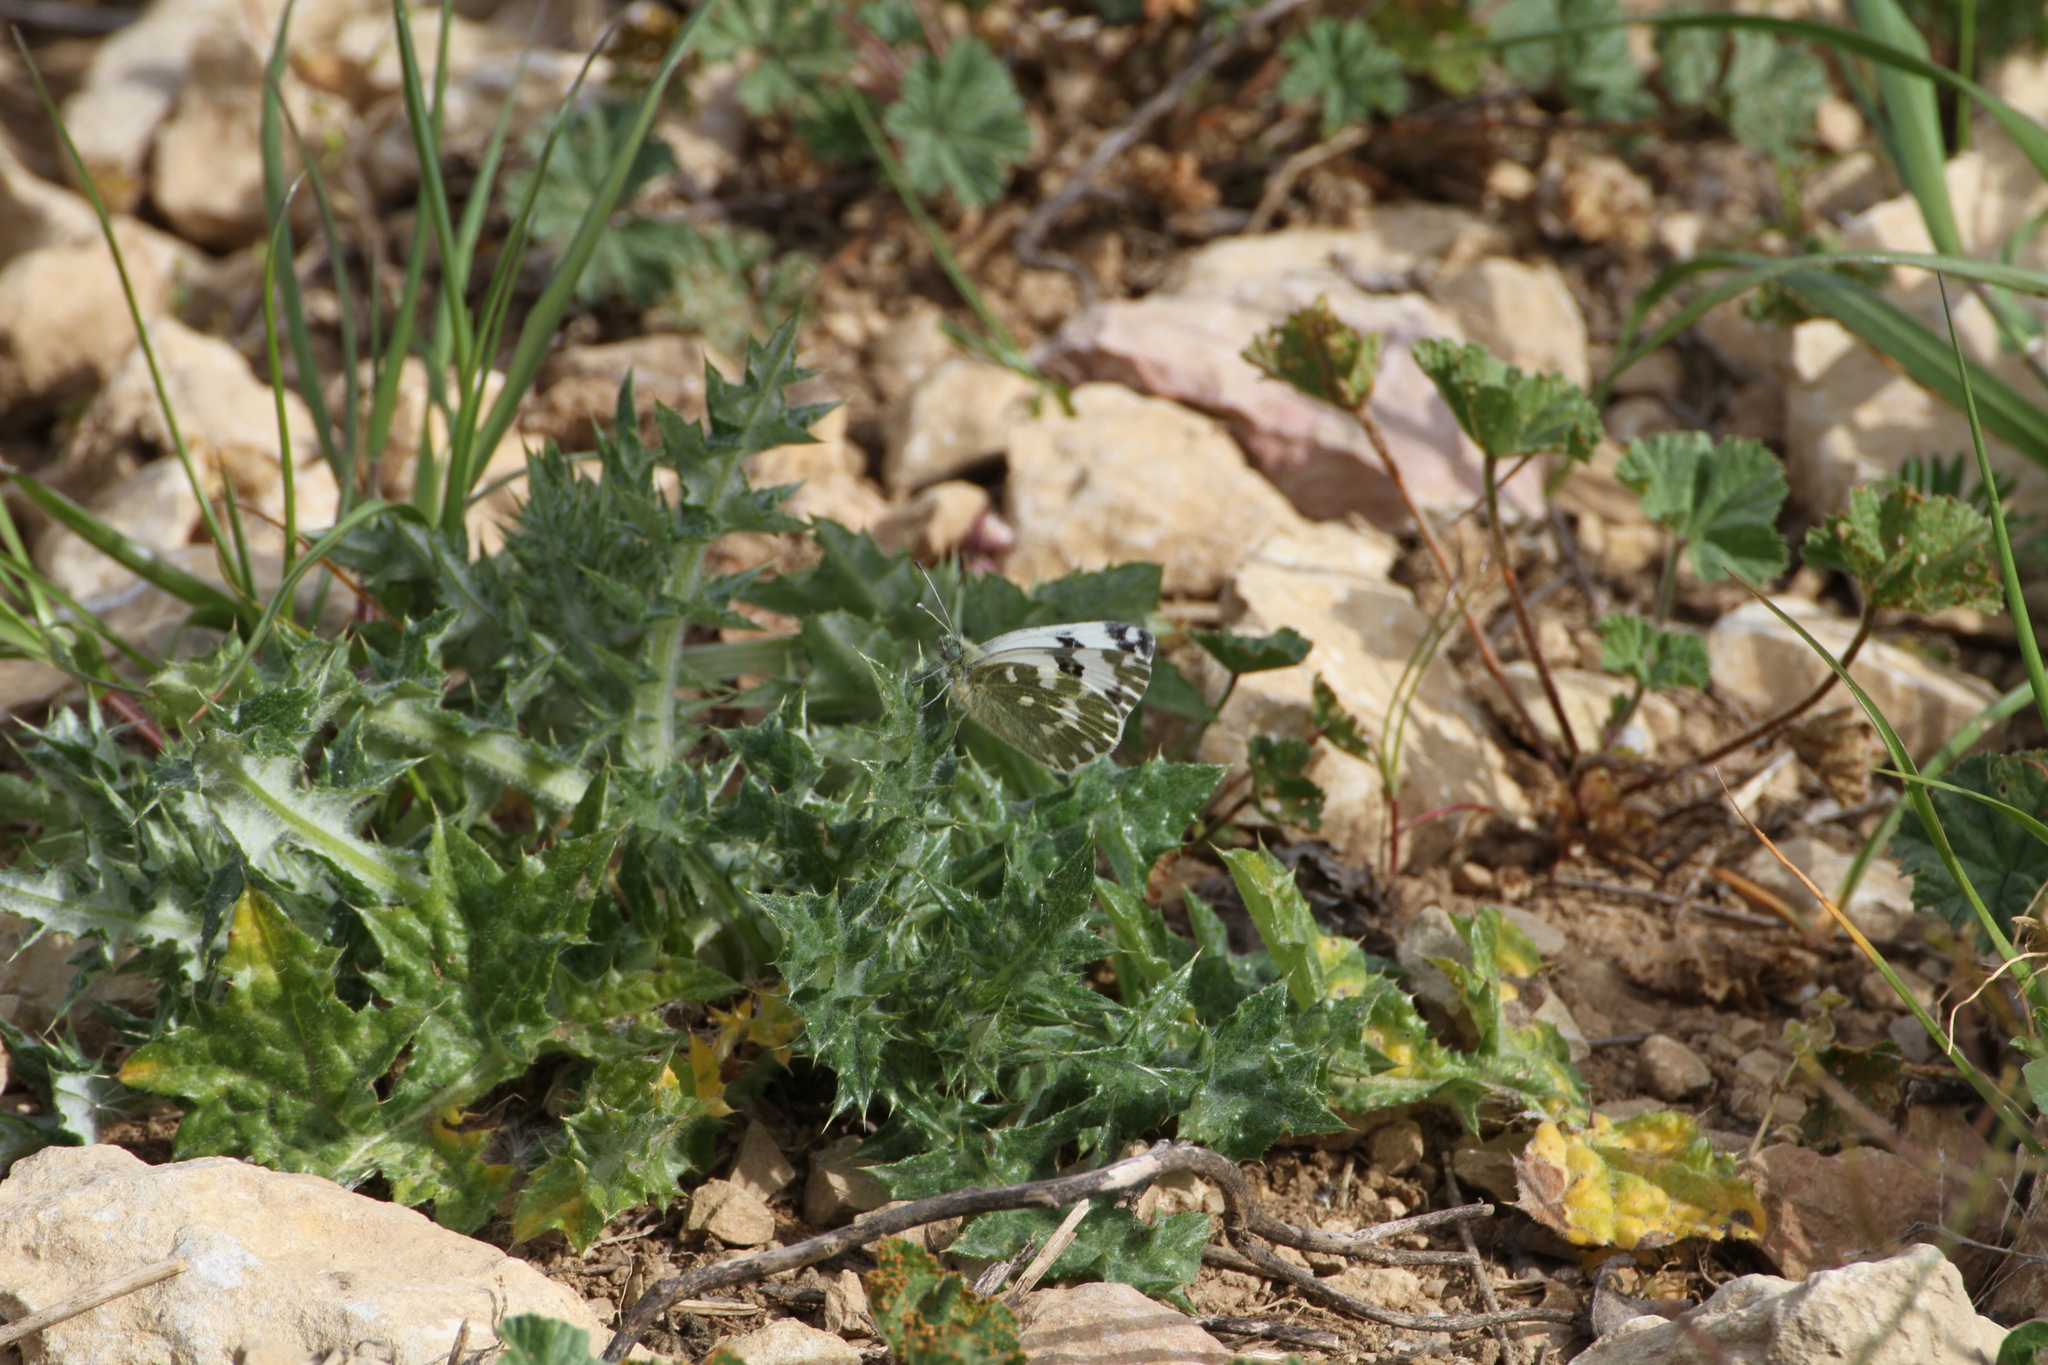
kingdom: Animalia
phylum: Arthropoda
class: Insecta
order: Lepidoptera
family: Pieridae
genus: Pontia
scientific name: Pontia daplidice
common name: Bath white
